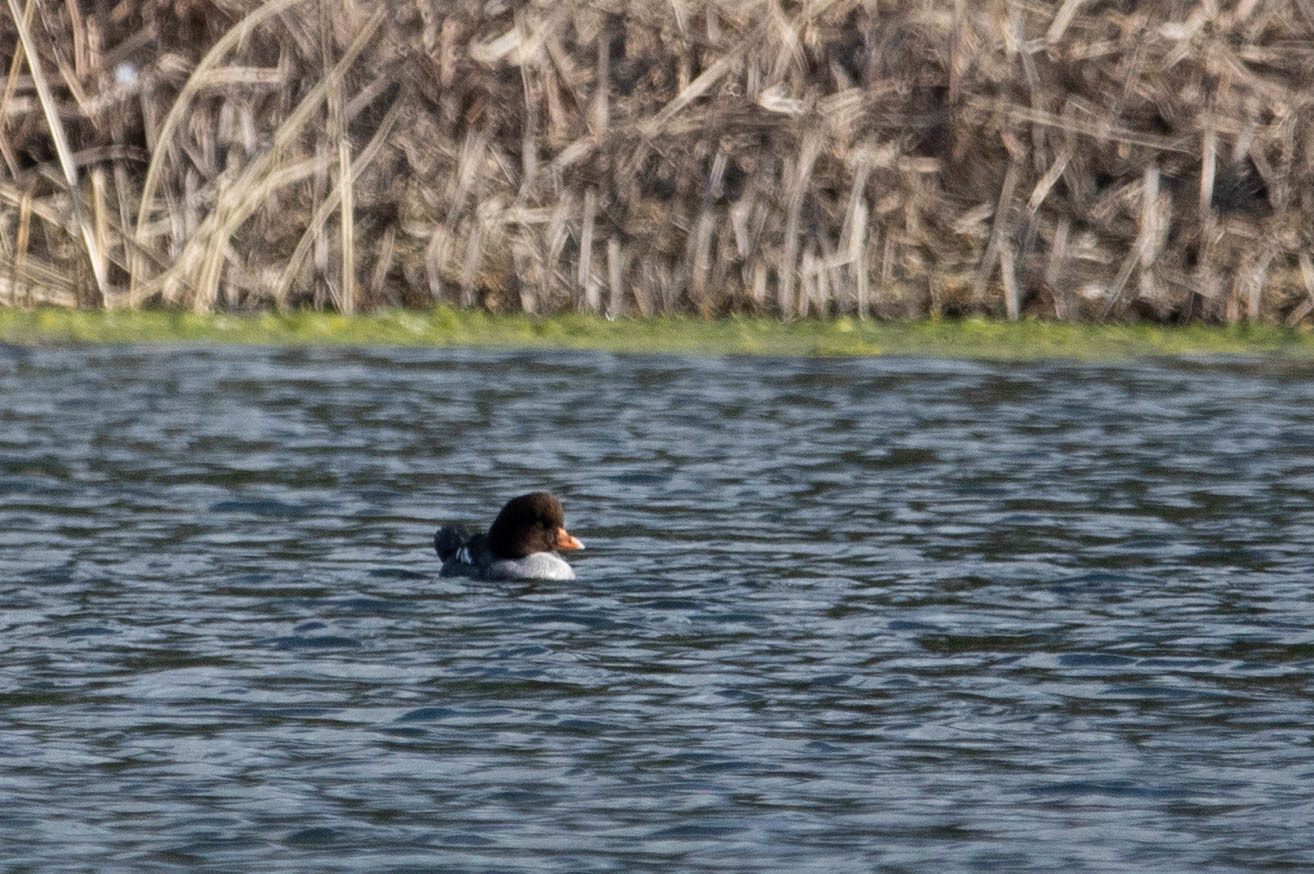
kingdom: Animalia
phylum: Chordata
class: Aves
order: Anseriformes
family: Anatidae
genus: Bucephala
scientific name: Bucephala islandica
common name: Barrow's goldeneye
